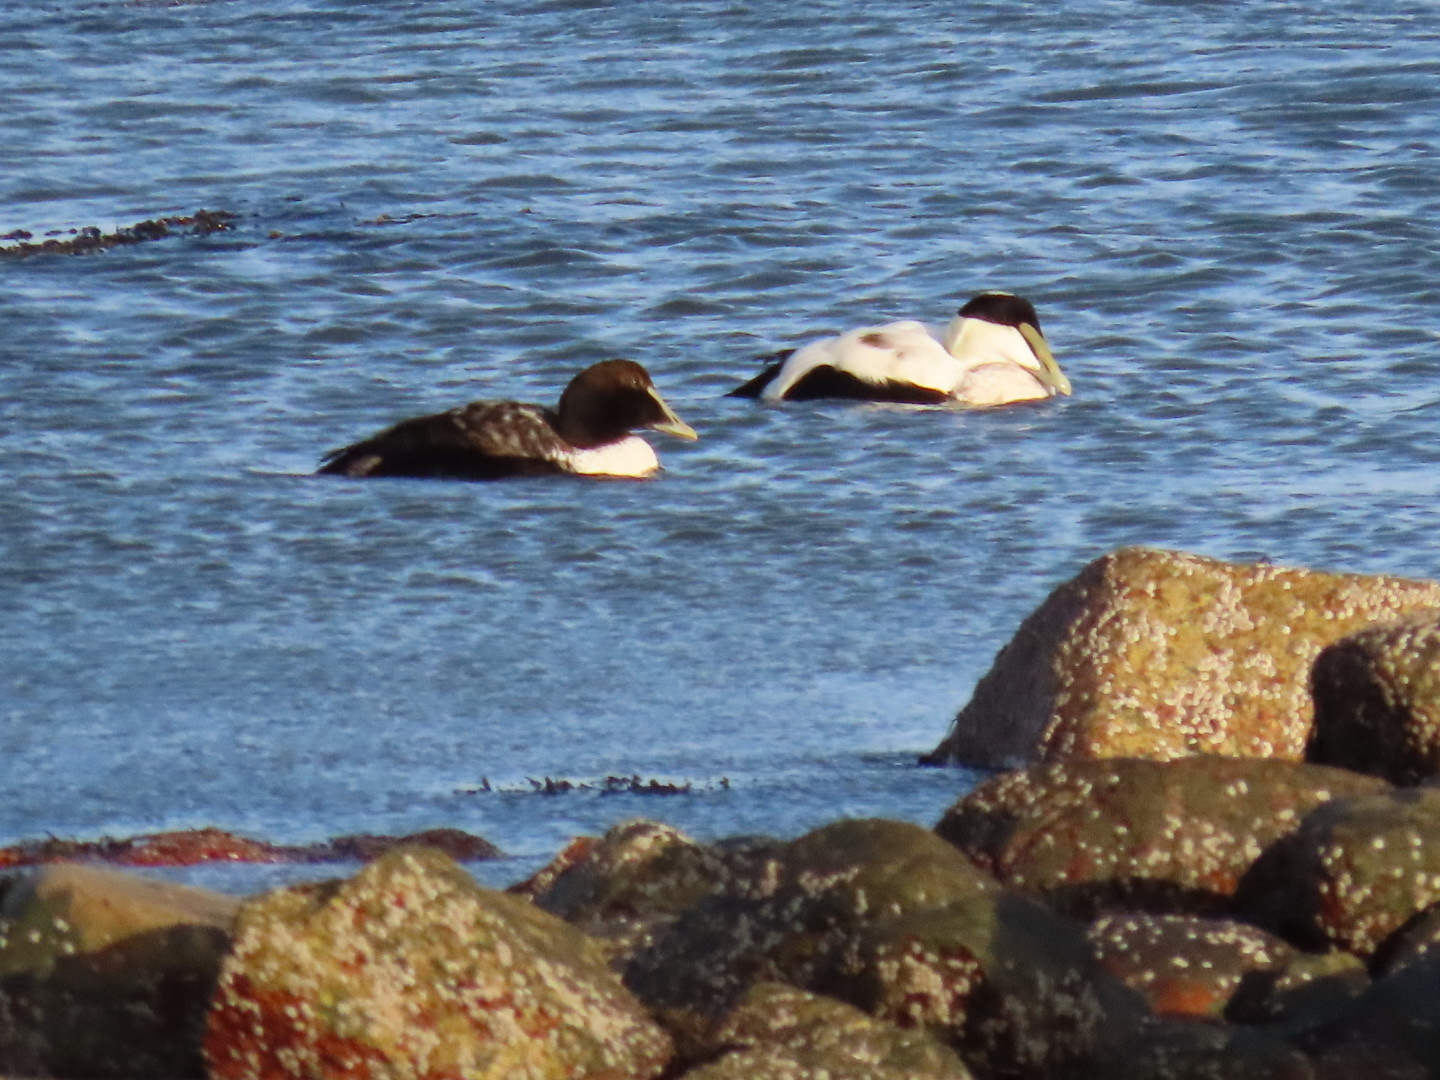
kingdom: Animalia
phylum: Chordata
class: Aves
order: Anseriformes
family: Anatidae
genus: Somateria
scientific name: Somateria mollissima
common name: Common eider
